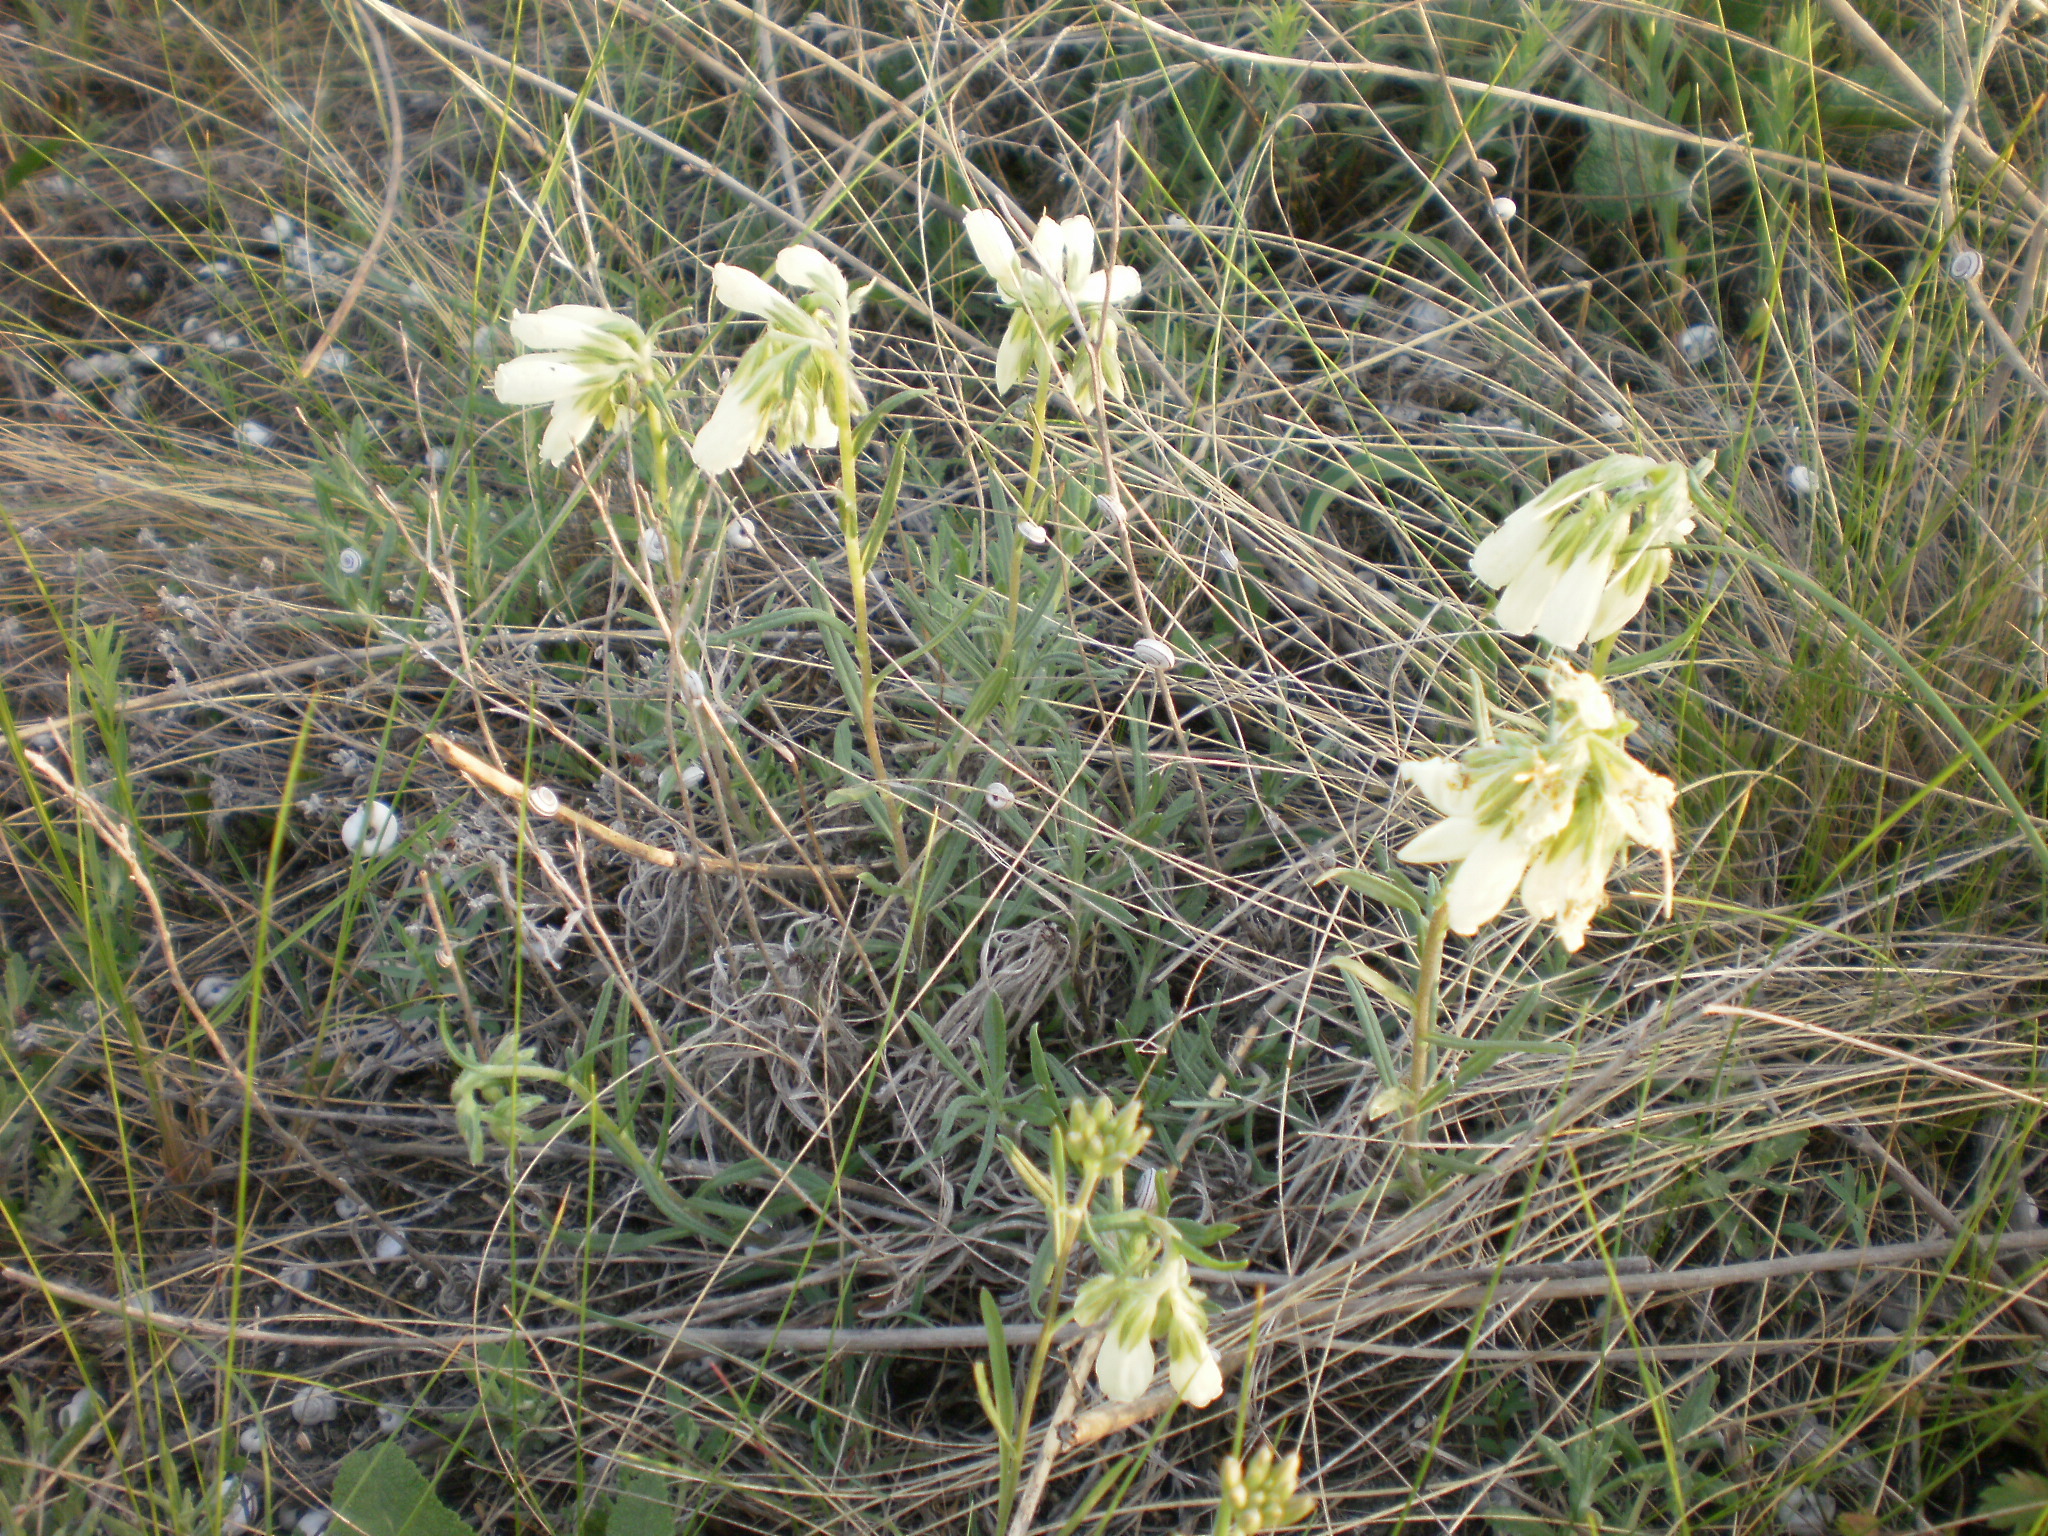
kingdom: Plantae
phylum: Tracheophyta
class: Magnoliopsida
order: Boraginales
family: Boraginaceae
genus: Onosma
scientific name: Onosma simplicissima
